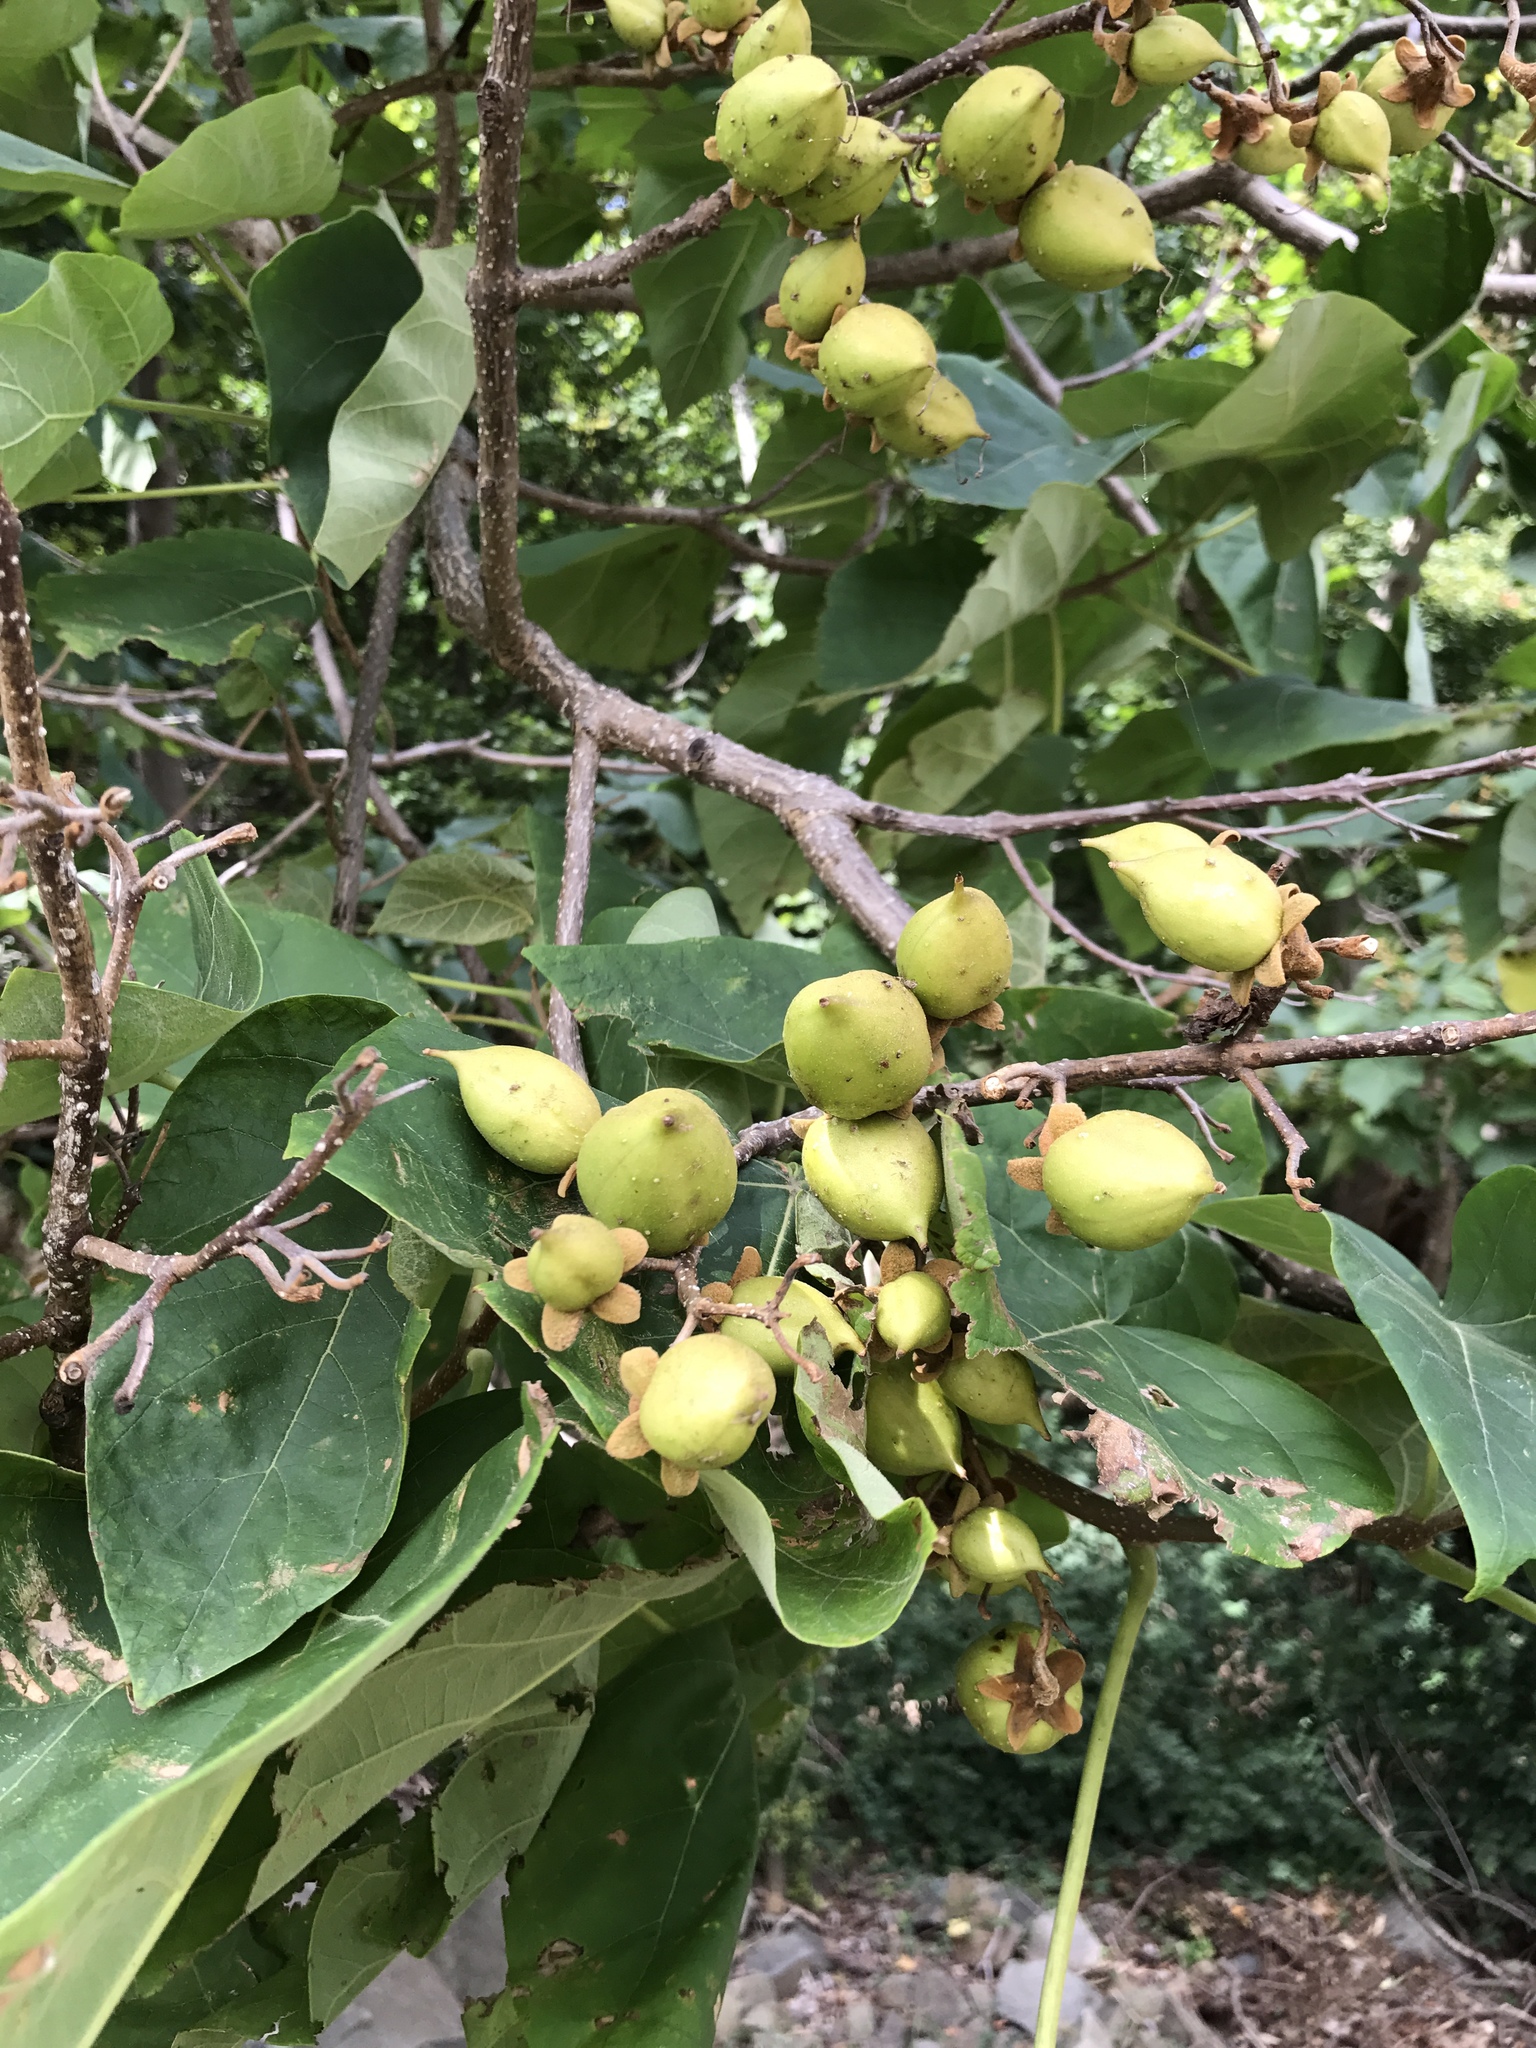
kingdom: Plantae
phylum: Tracheophyta
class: Magnoliopsida
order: Lamiales
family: Paulowniaceae
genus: Paulownia
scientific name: Paulownia tomentosa
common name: Foxglove-tree
